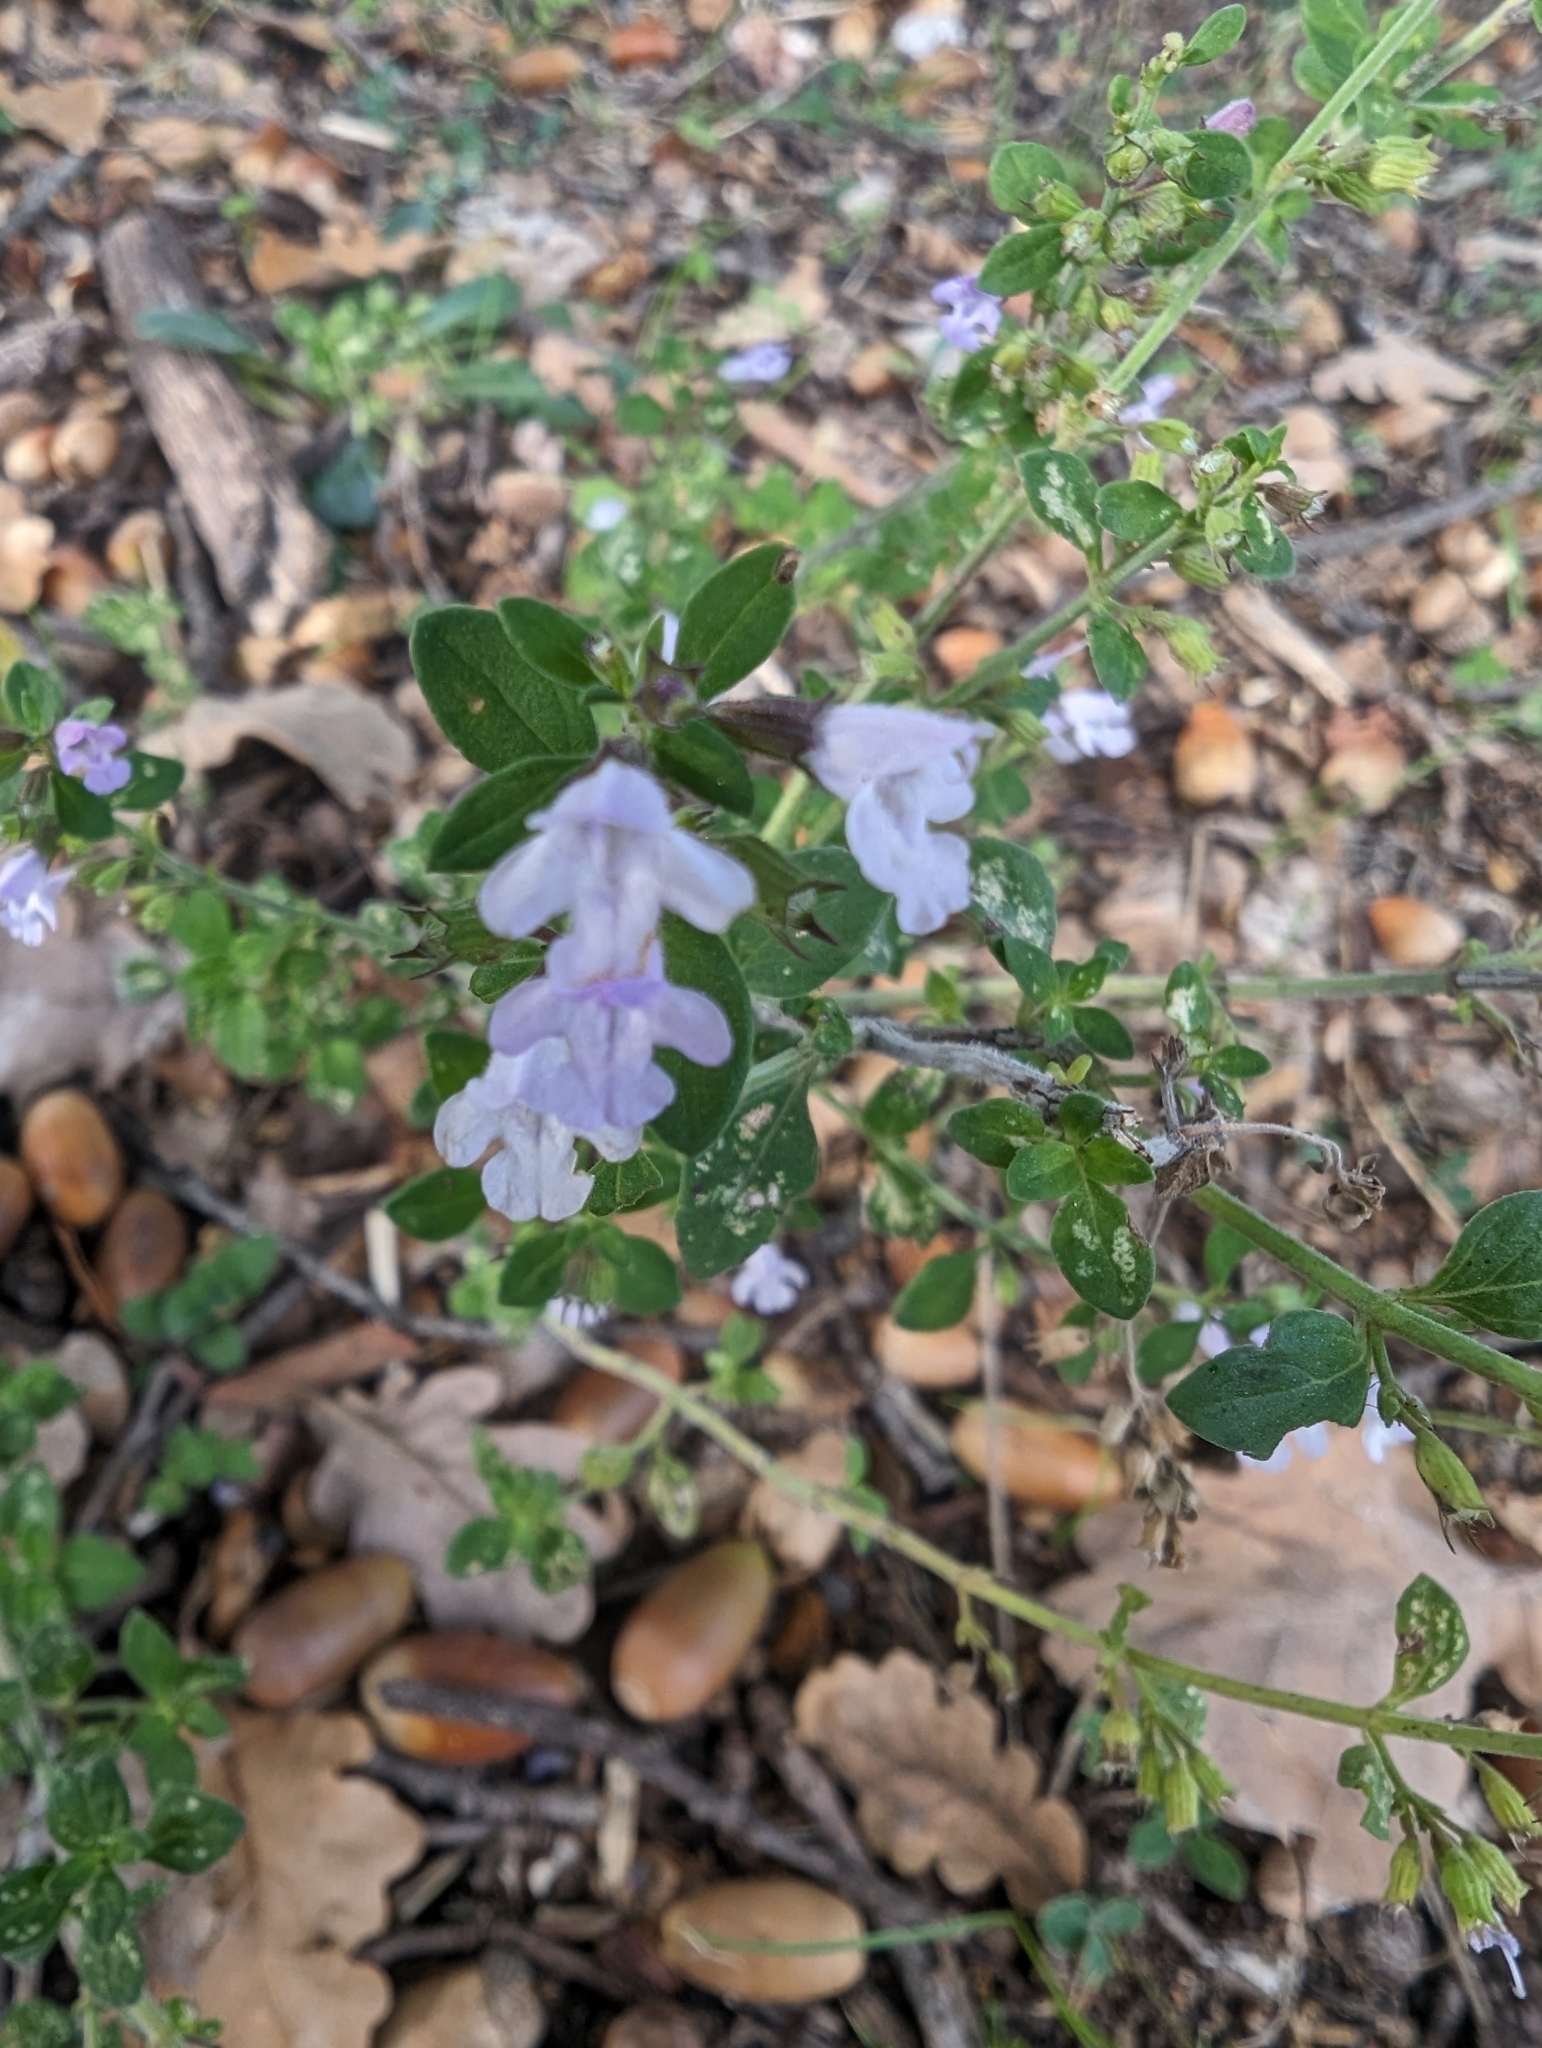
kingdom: Plantae
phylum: Tracheophyta
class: Magnoliopsida
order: Lamiales
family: Lamiaceae
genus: Clinopodium
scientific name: Clinopodium nepeta
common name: Lesser calamint
